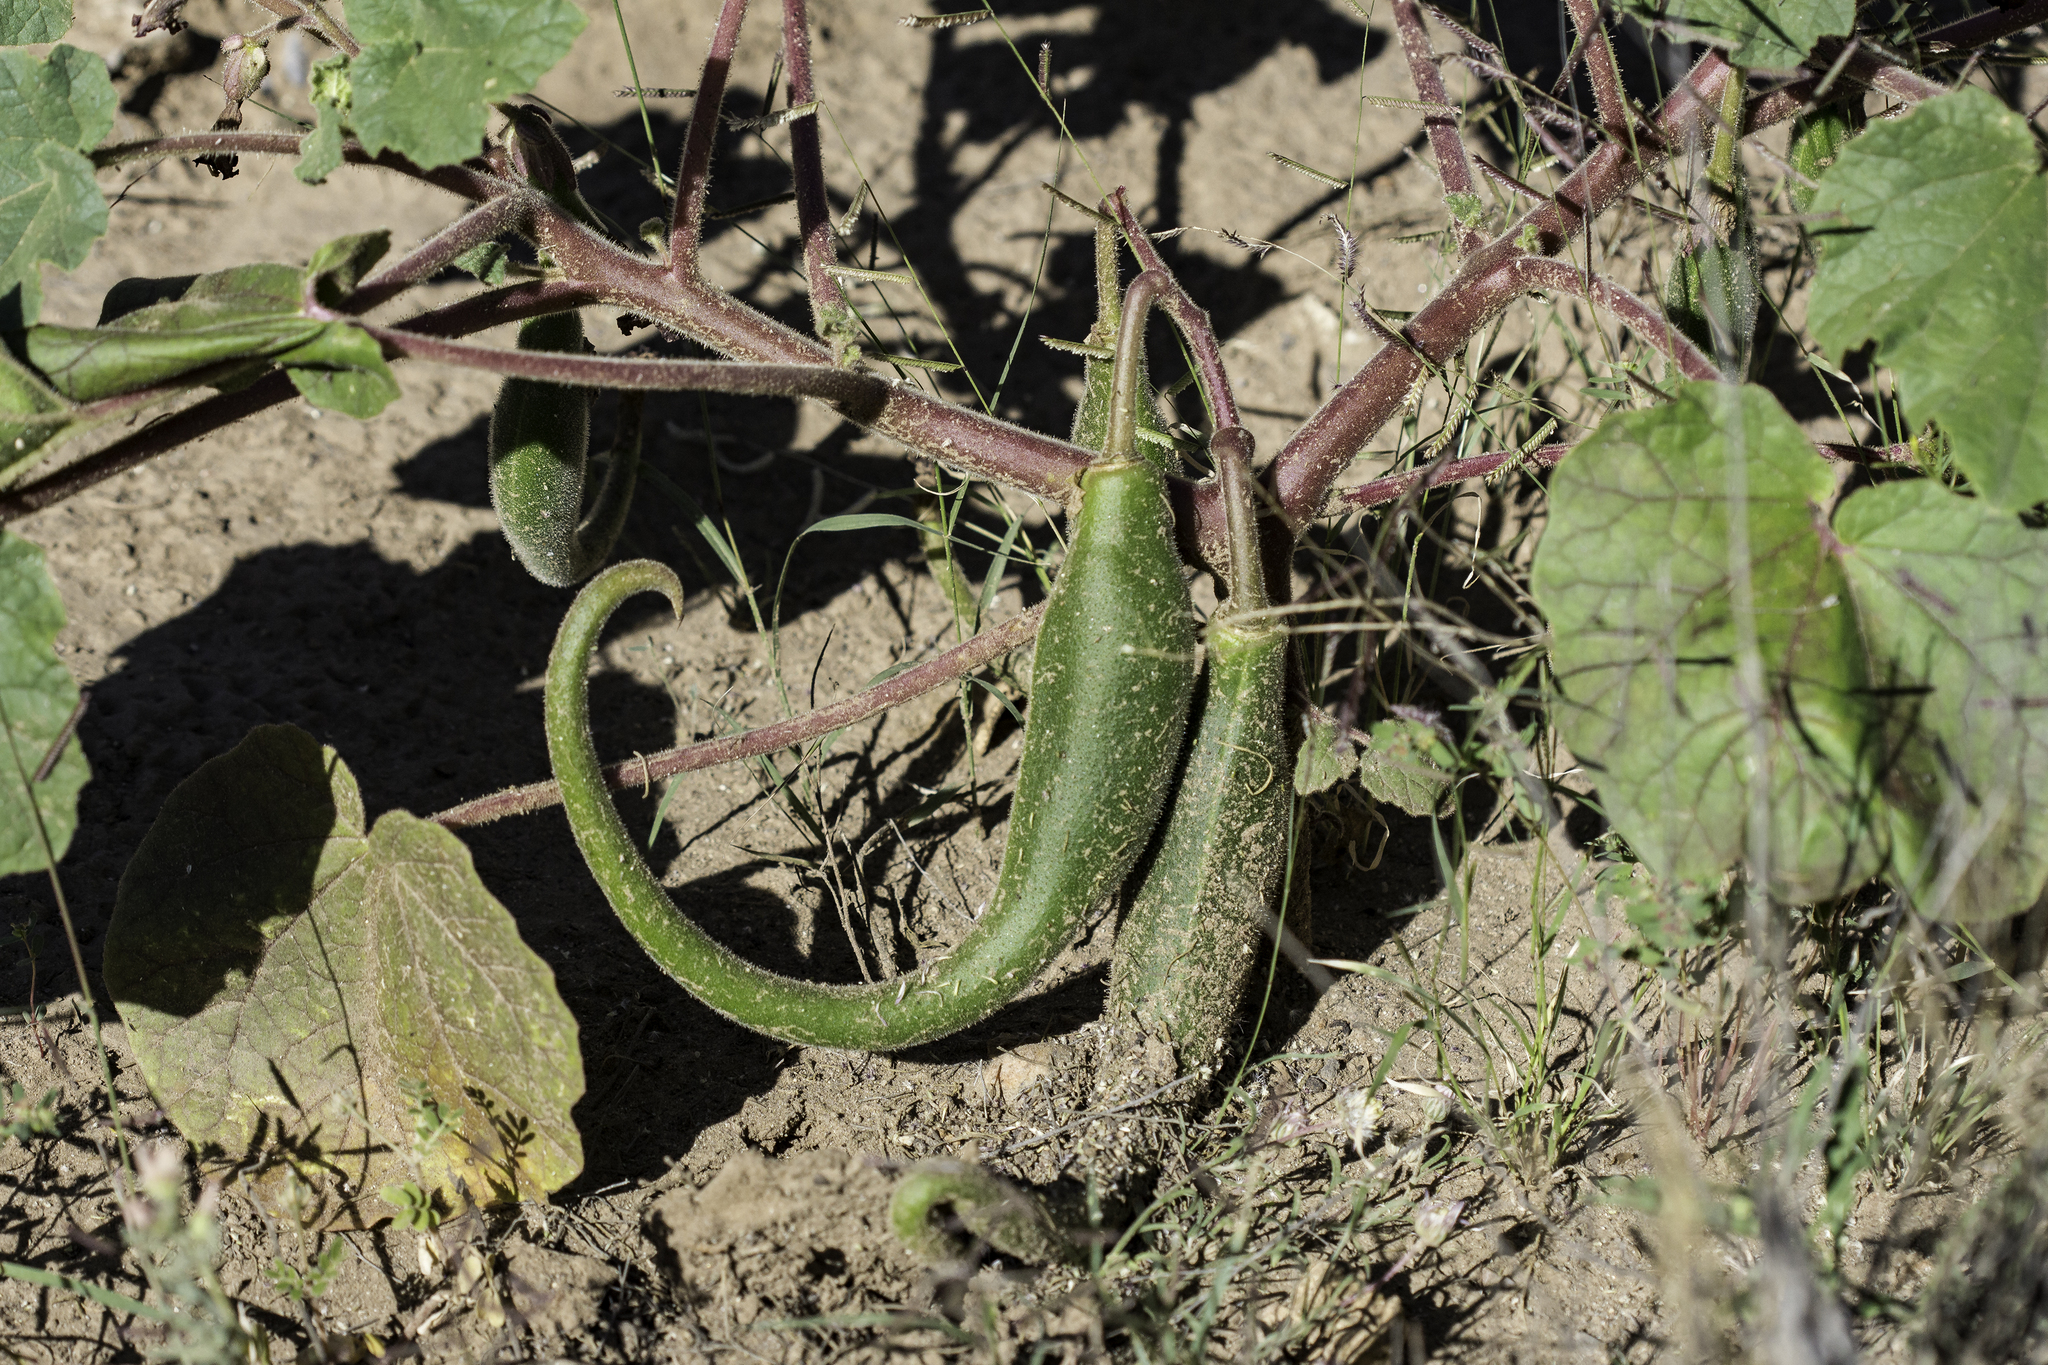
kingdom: Plantae
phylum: Tracheophyta
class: Magnoliopsida
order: Lamiales
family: Martyniaceae
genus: Proboscidea
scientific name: Proboscidea parviflora
